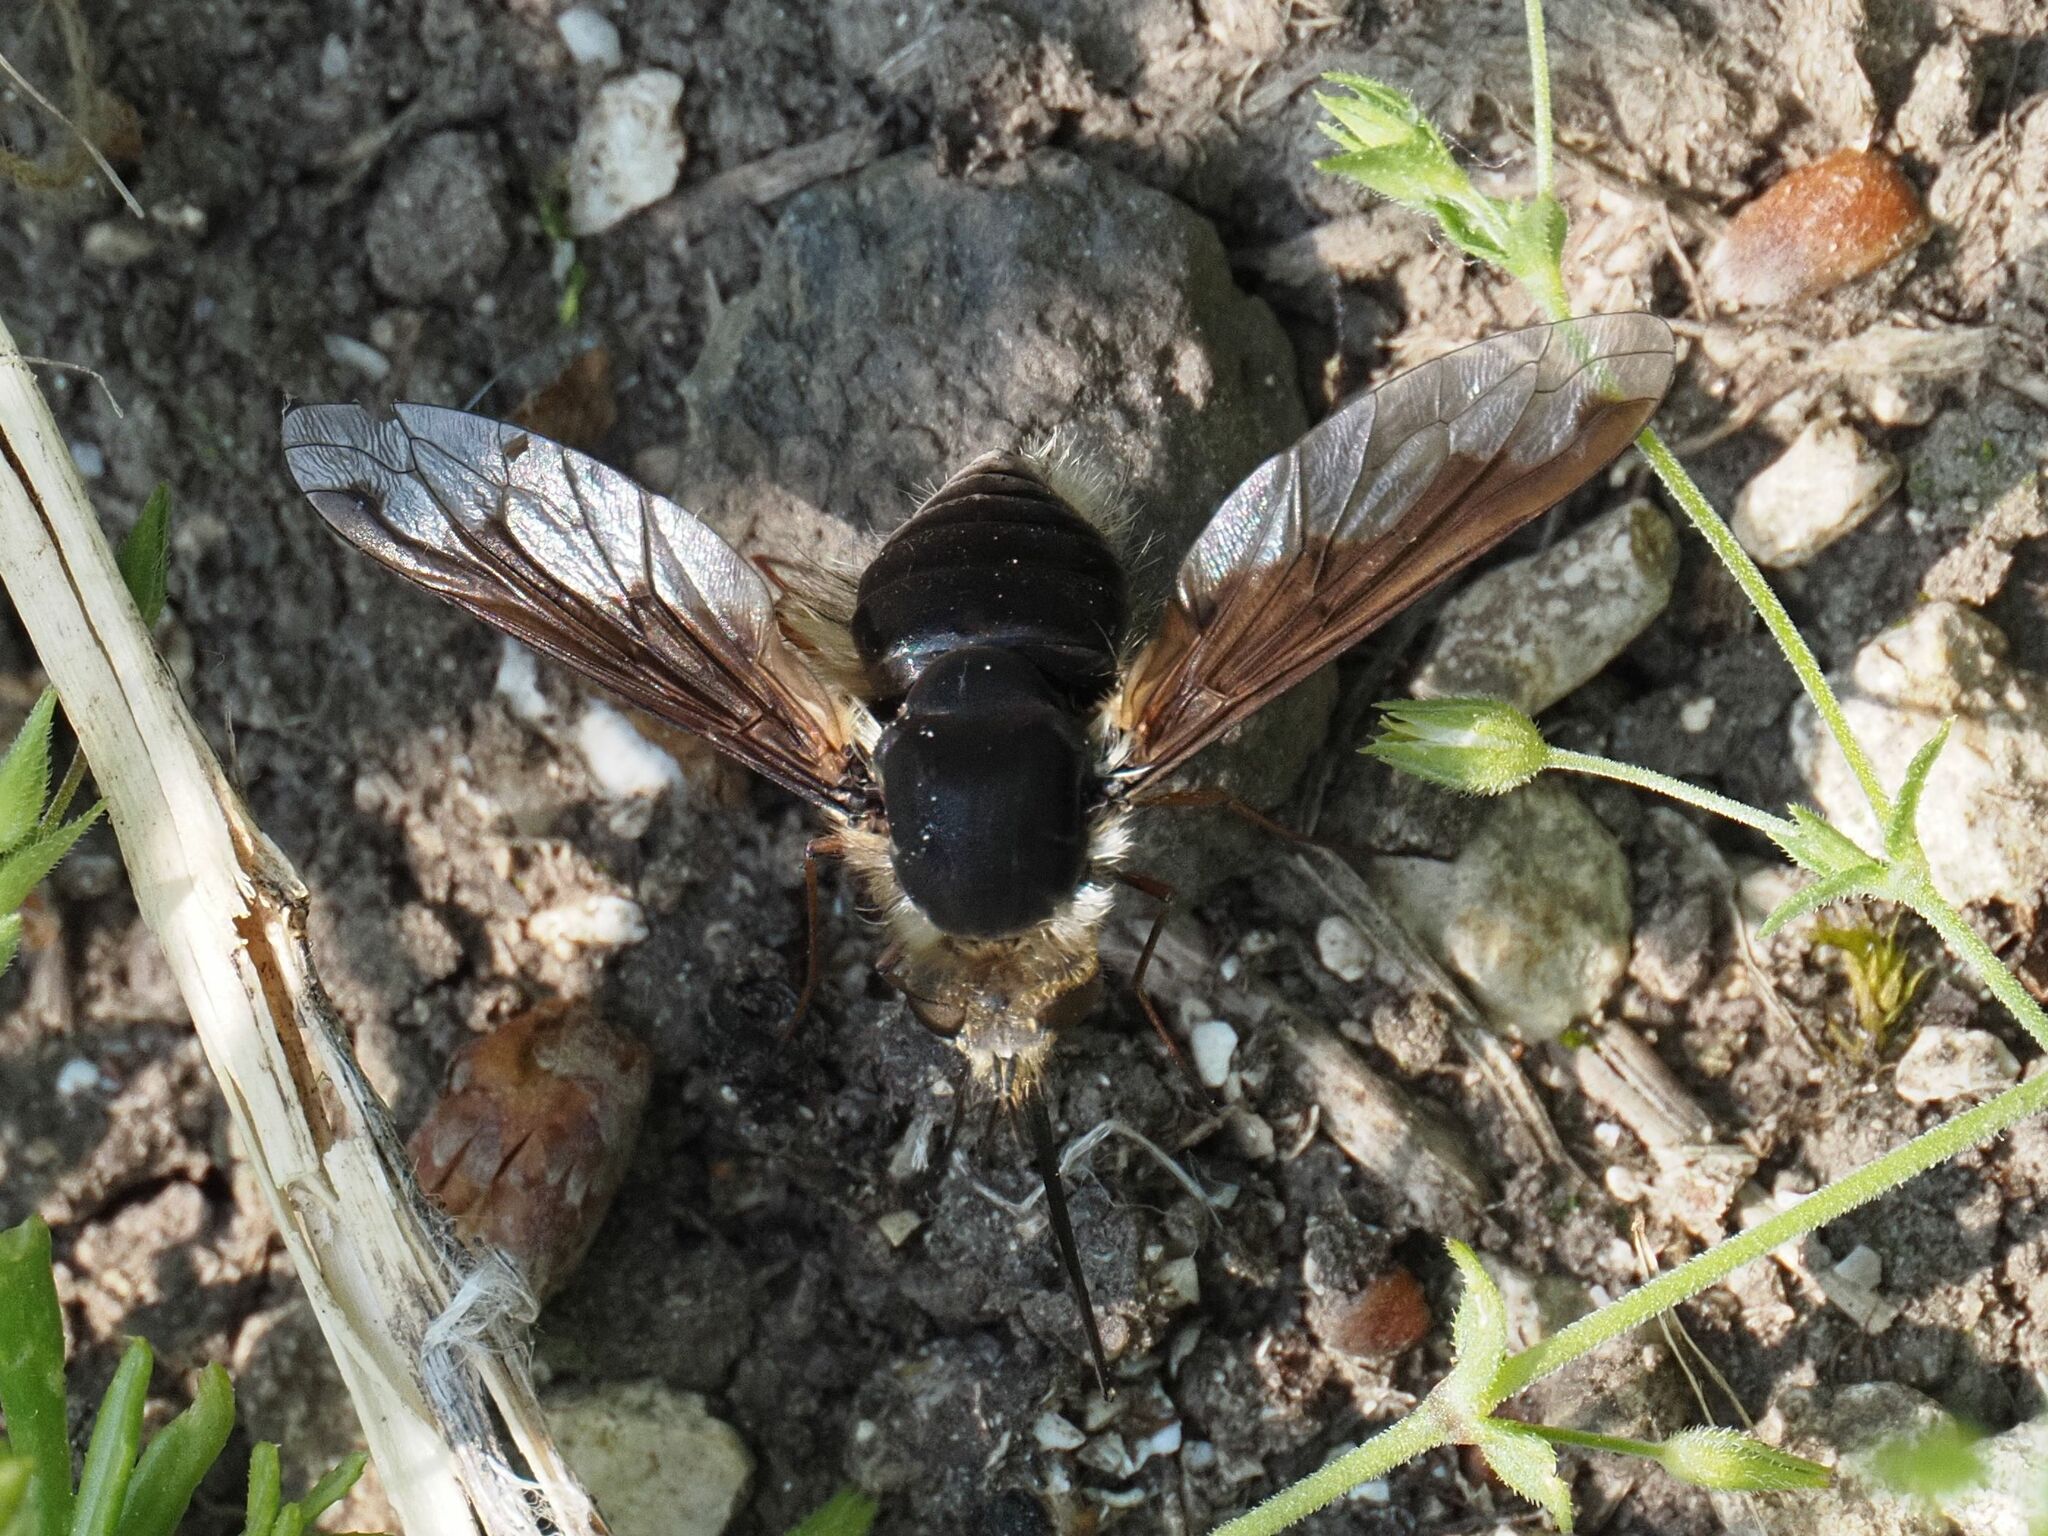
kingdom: Animalia
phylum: Arthropoda
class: Insecta
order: Diptera
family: Bombyliidae
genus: Bombylius
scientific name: Bombylius major
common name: Bee fly
